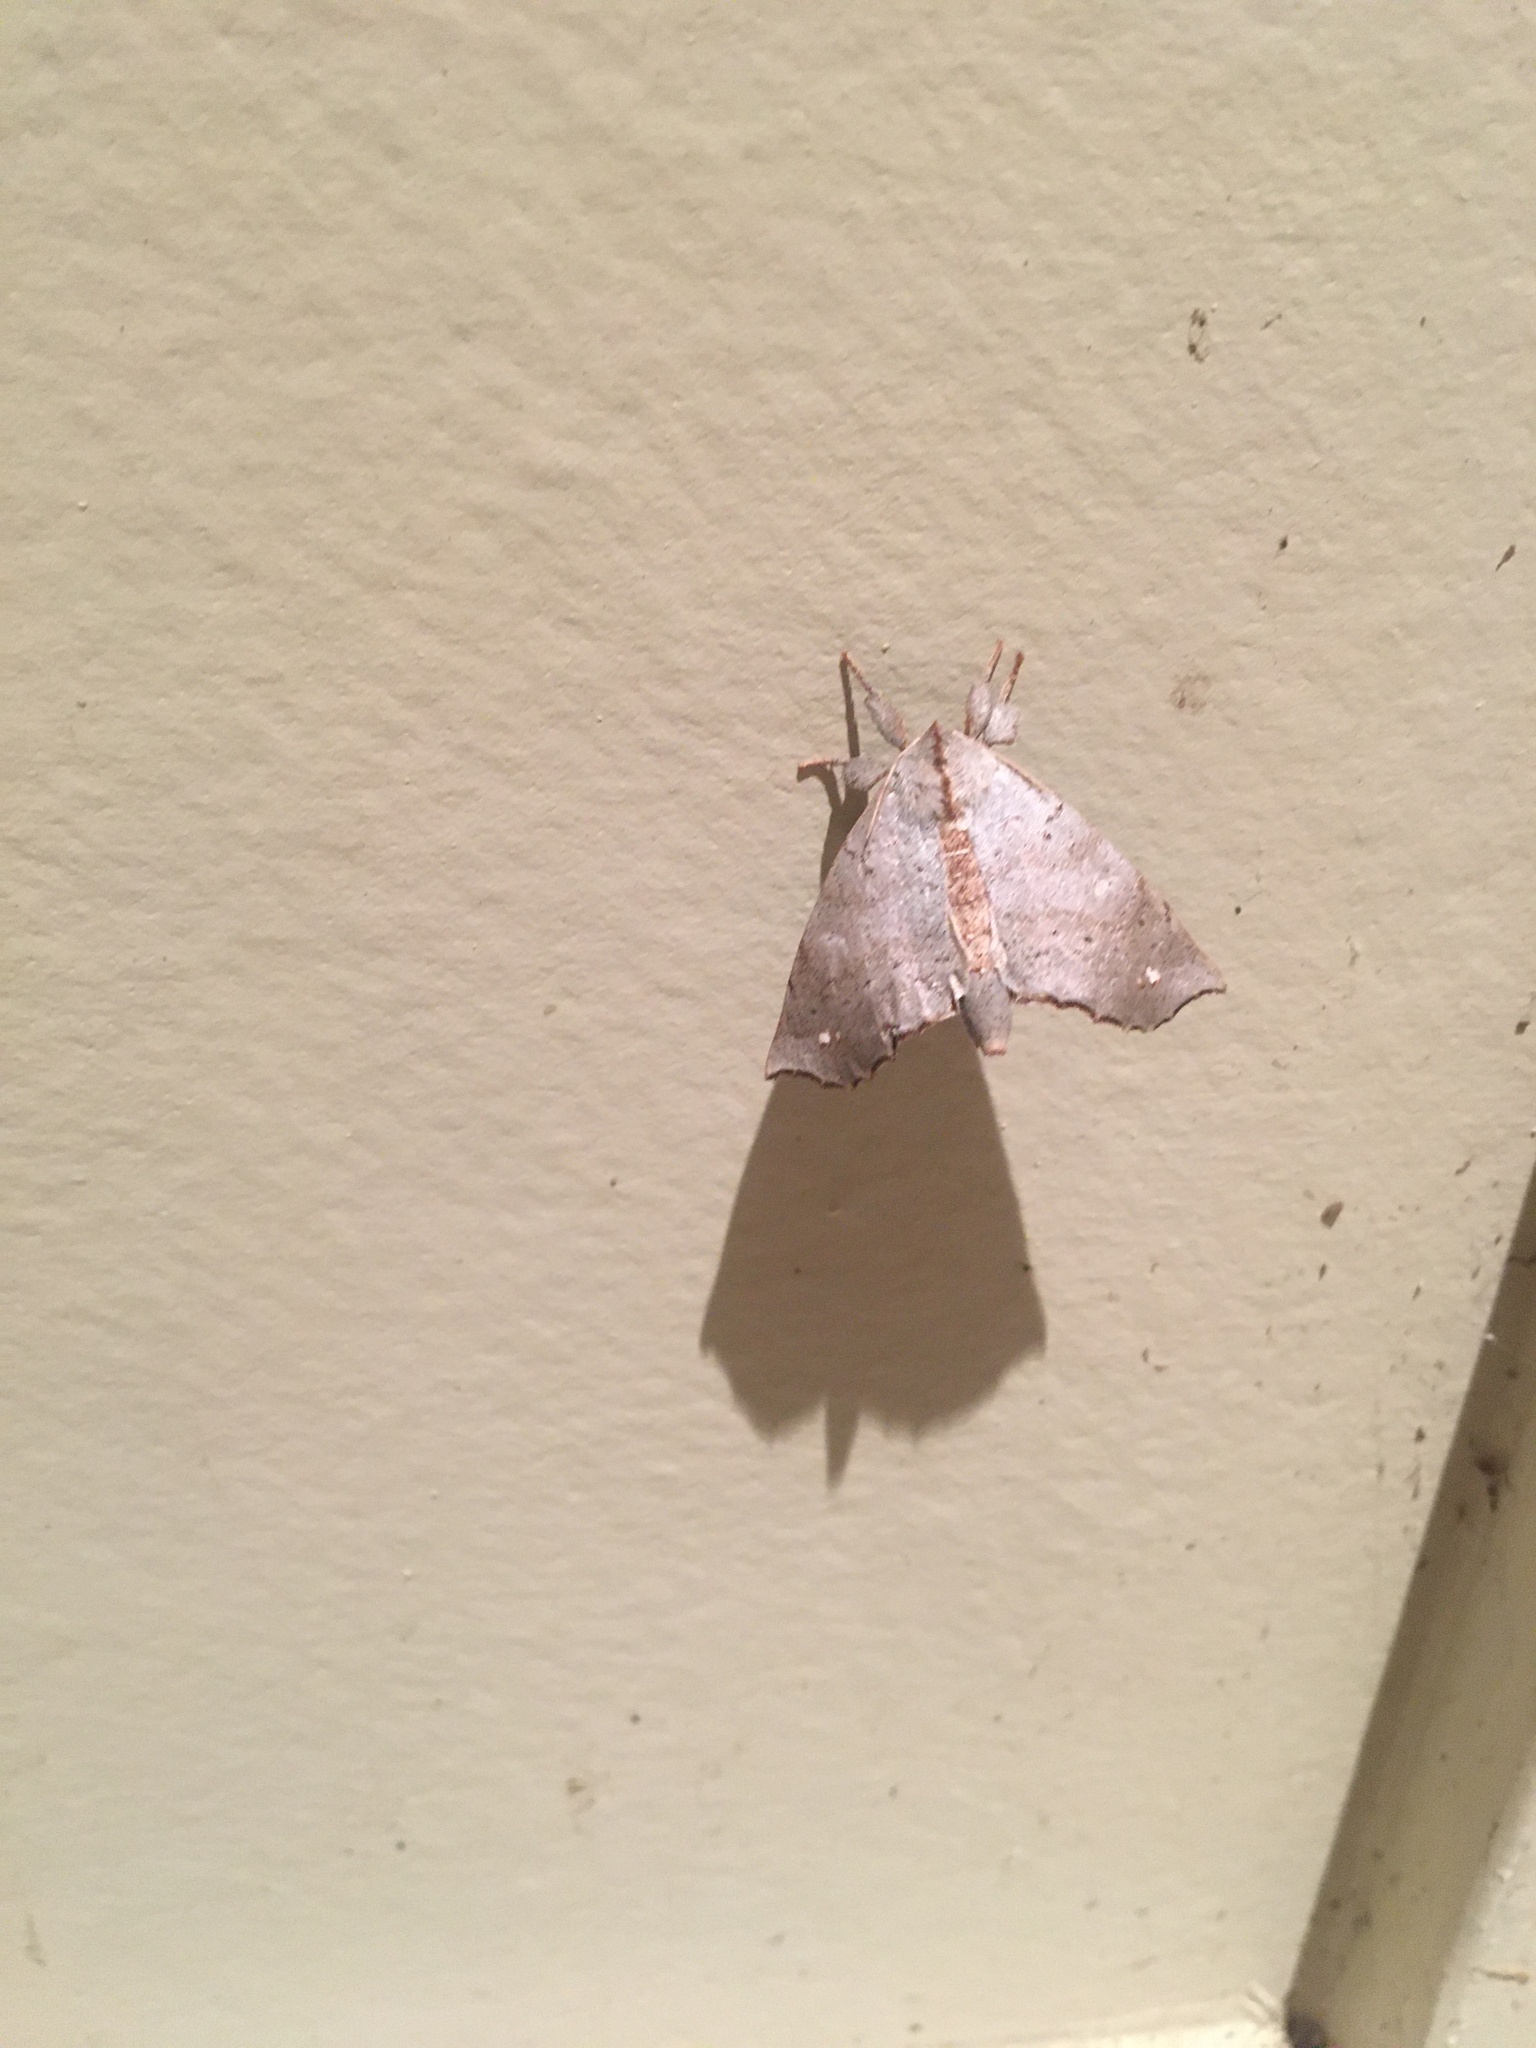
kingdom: Animalia
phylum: Arthropoda
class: Insecta
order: Lepidoptera
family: Apatelodidae
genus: Olceclostera
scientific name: Olceclostera angelica
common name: Angel moth
